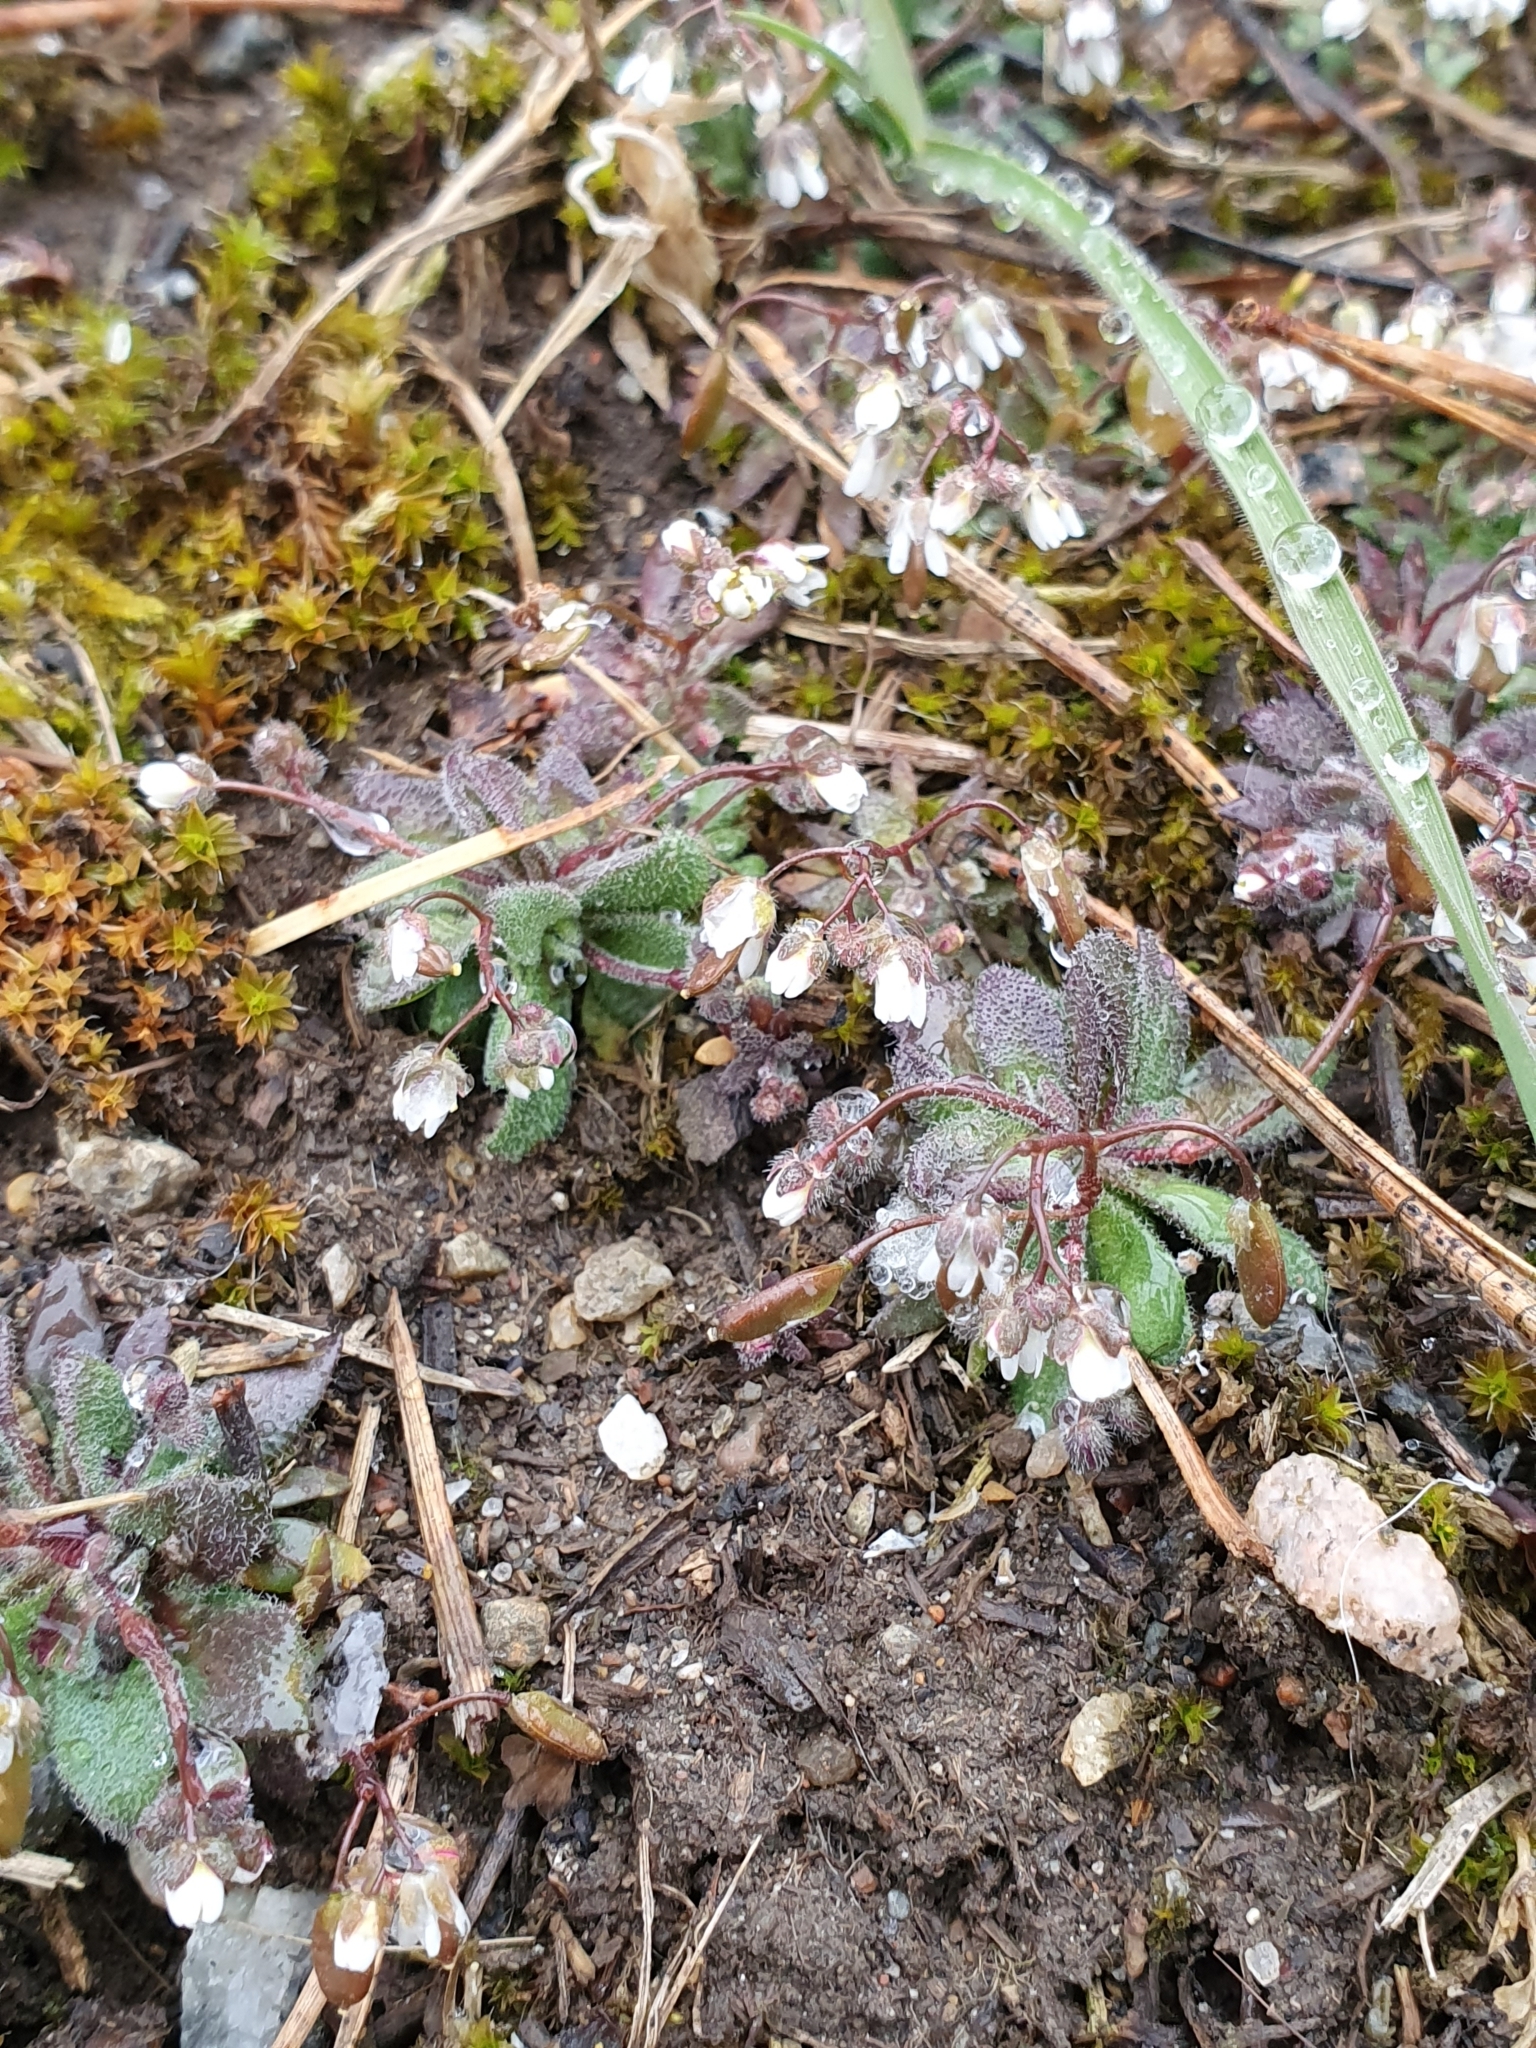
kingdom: Plantae
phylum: Tracheophyta
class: Magnoliopsida
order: Brassicales
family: Brassicaceae
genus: Draba
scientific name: Draba verna
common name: Spring draba
